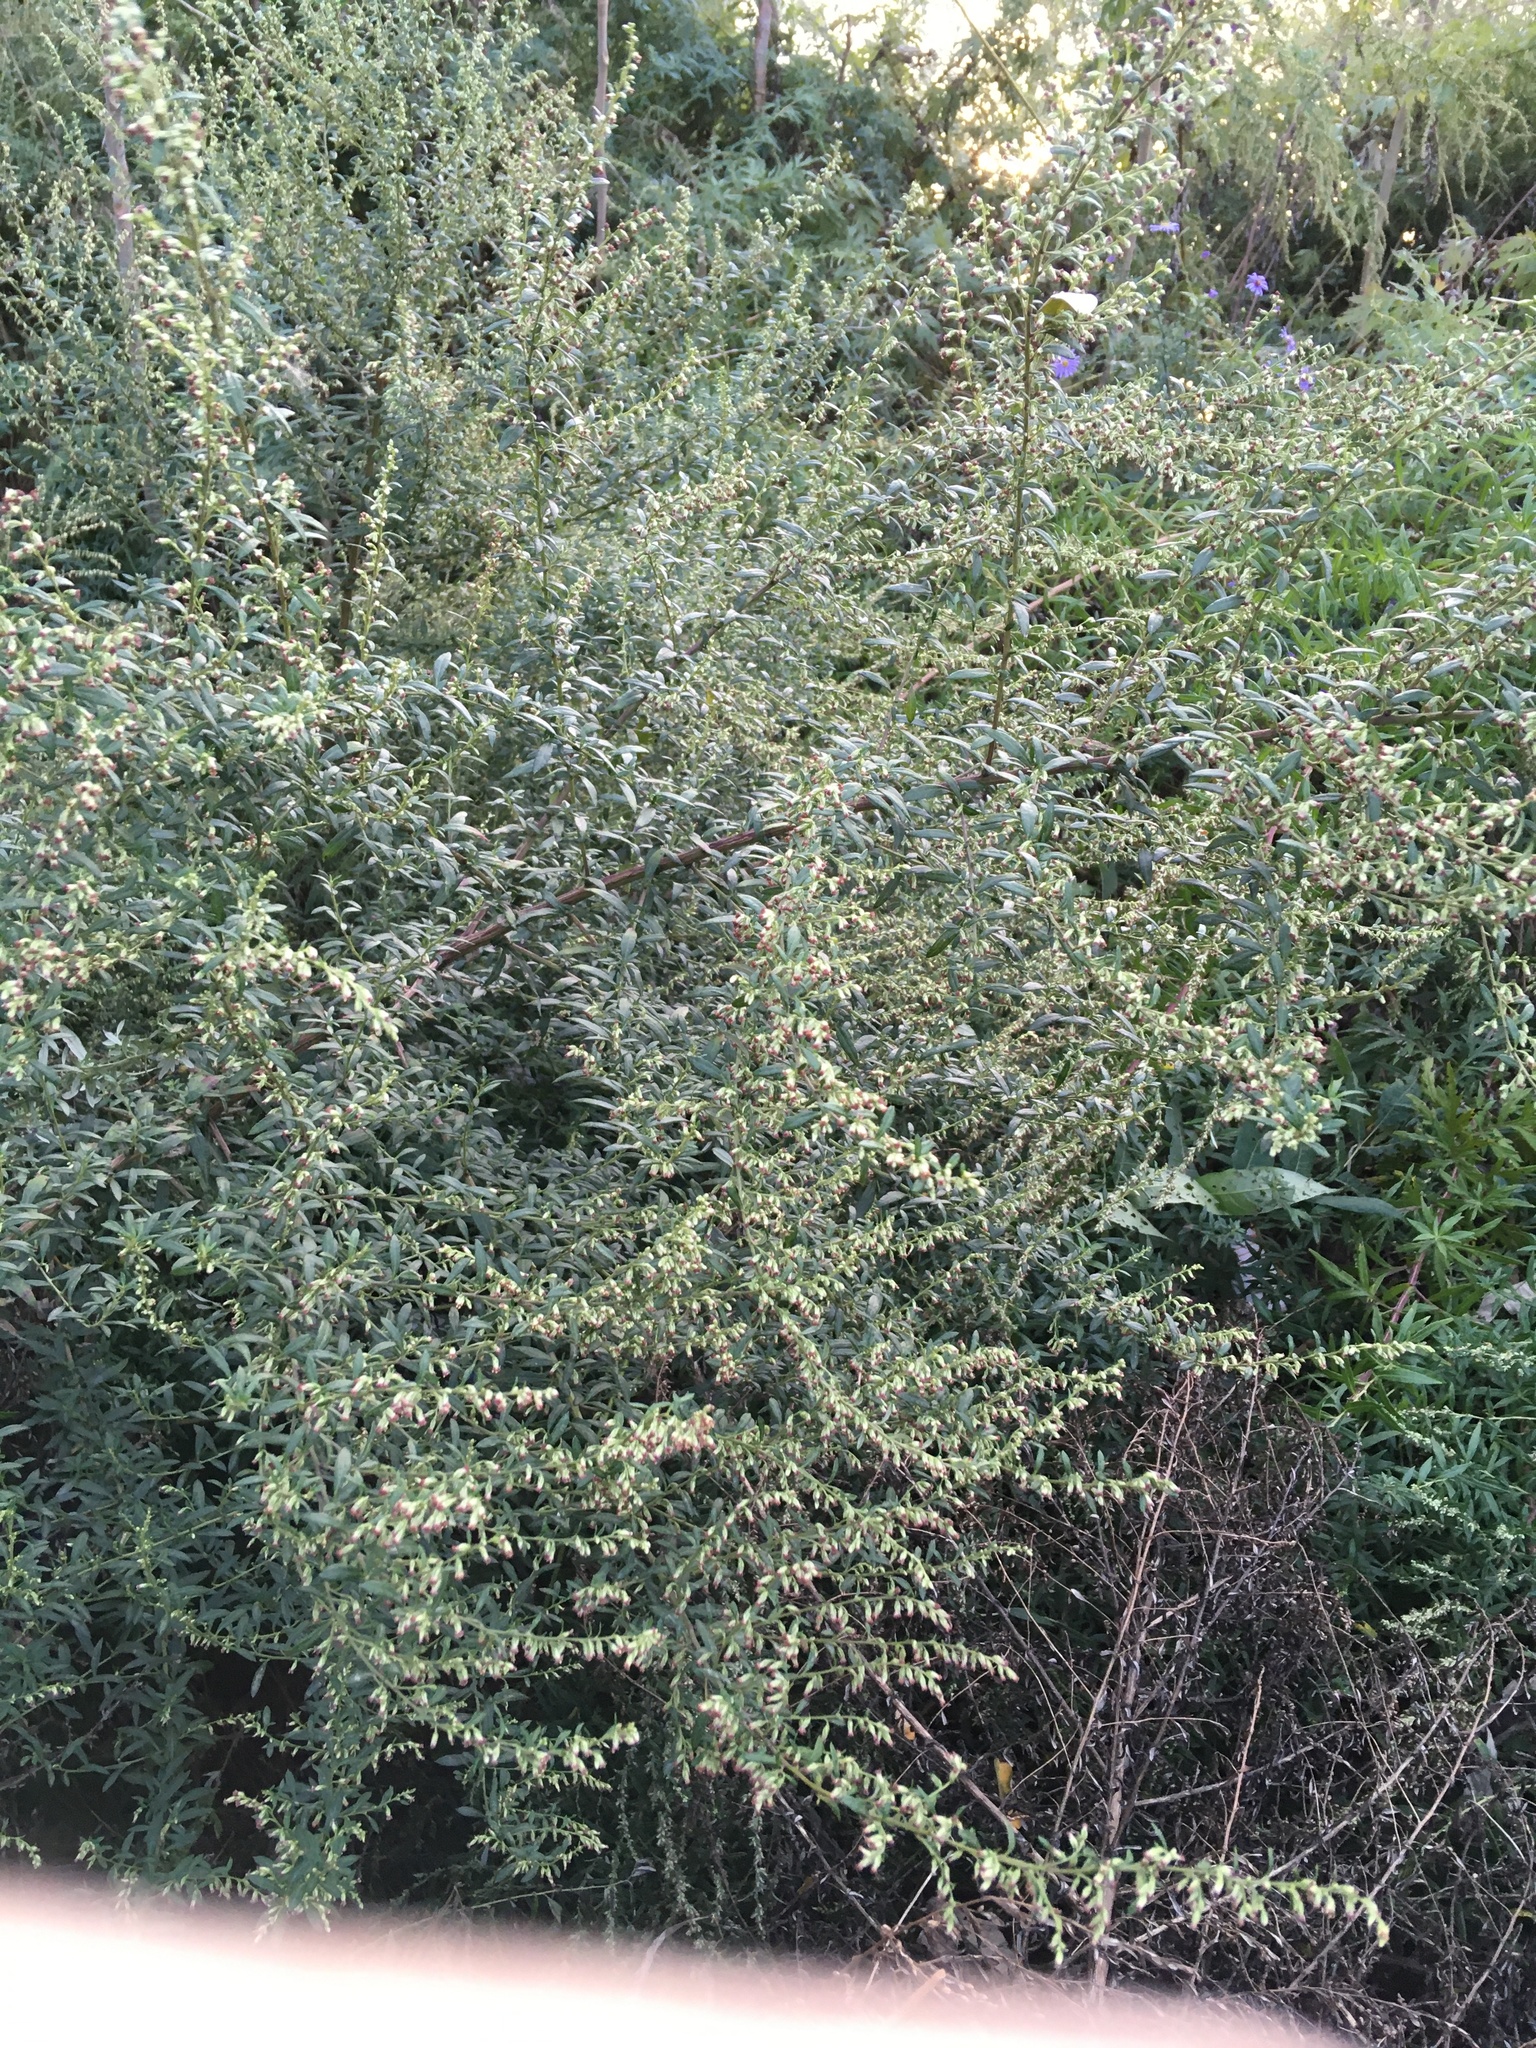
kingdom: Plantae
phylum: Tracheophyta
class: Magnoliopsida
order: Asterales
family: Asteraceae
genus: Artemisia
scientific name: Artemisia vulgaris
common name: Mugwort
